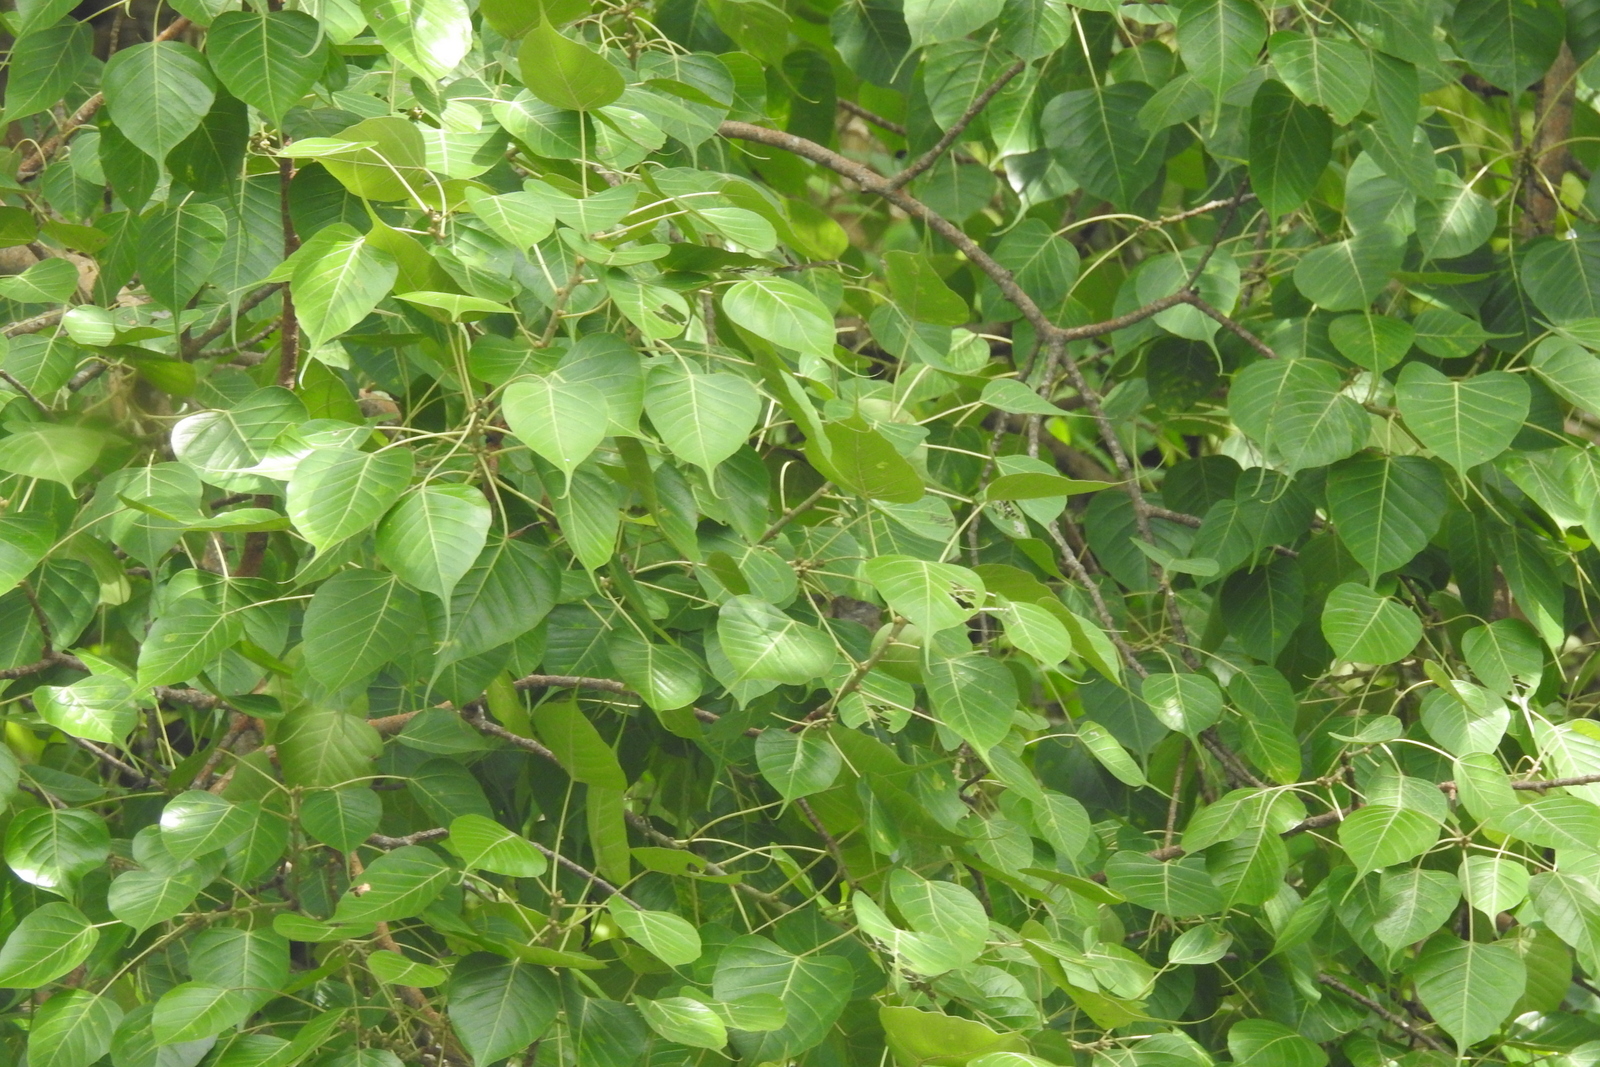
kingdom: Plantae
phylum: Tracheophyta
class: Magnoliopsida
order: Rosales
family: Moraceae
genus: Ficus
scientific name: Ficus religiosa
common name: Bodhi tree
